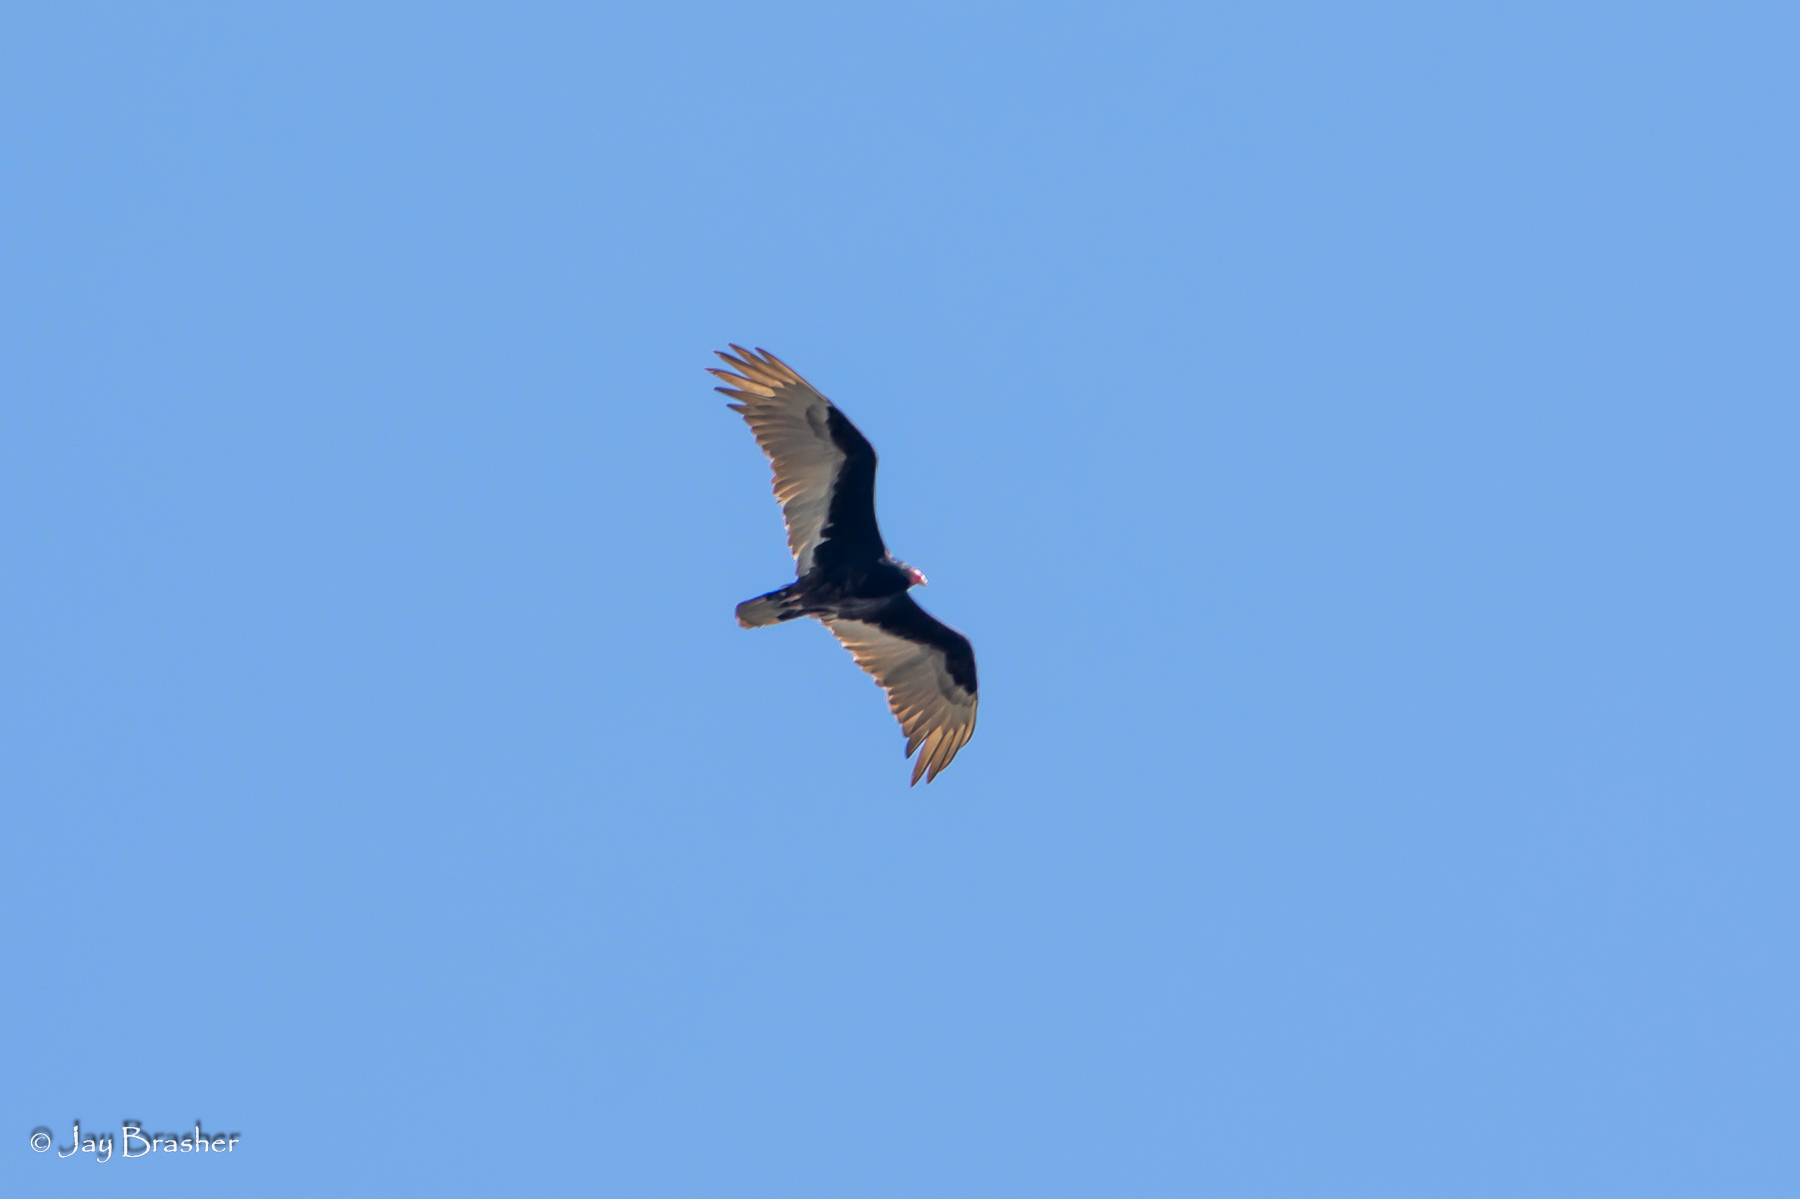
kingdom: Animalia
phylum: Chordata
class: Aves
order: Accipitriformes
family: Cathartidae
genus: Cathartes
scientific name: Cathartes aura
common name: Turkey vulture
